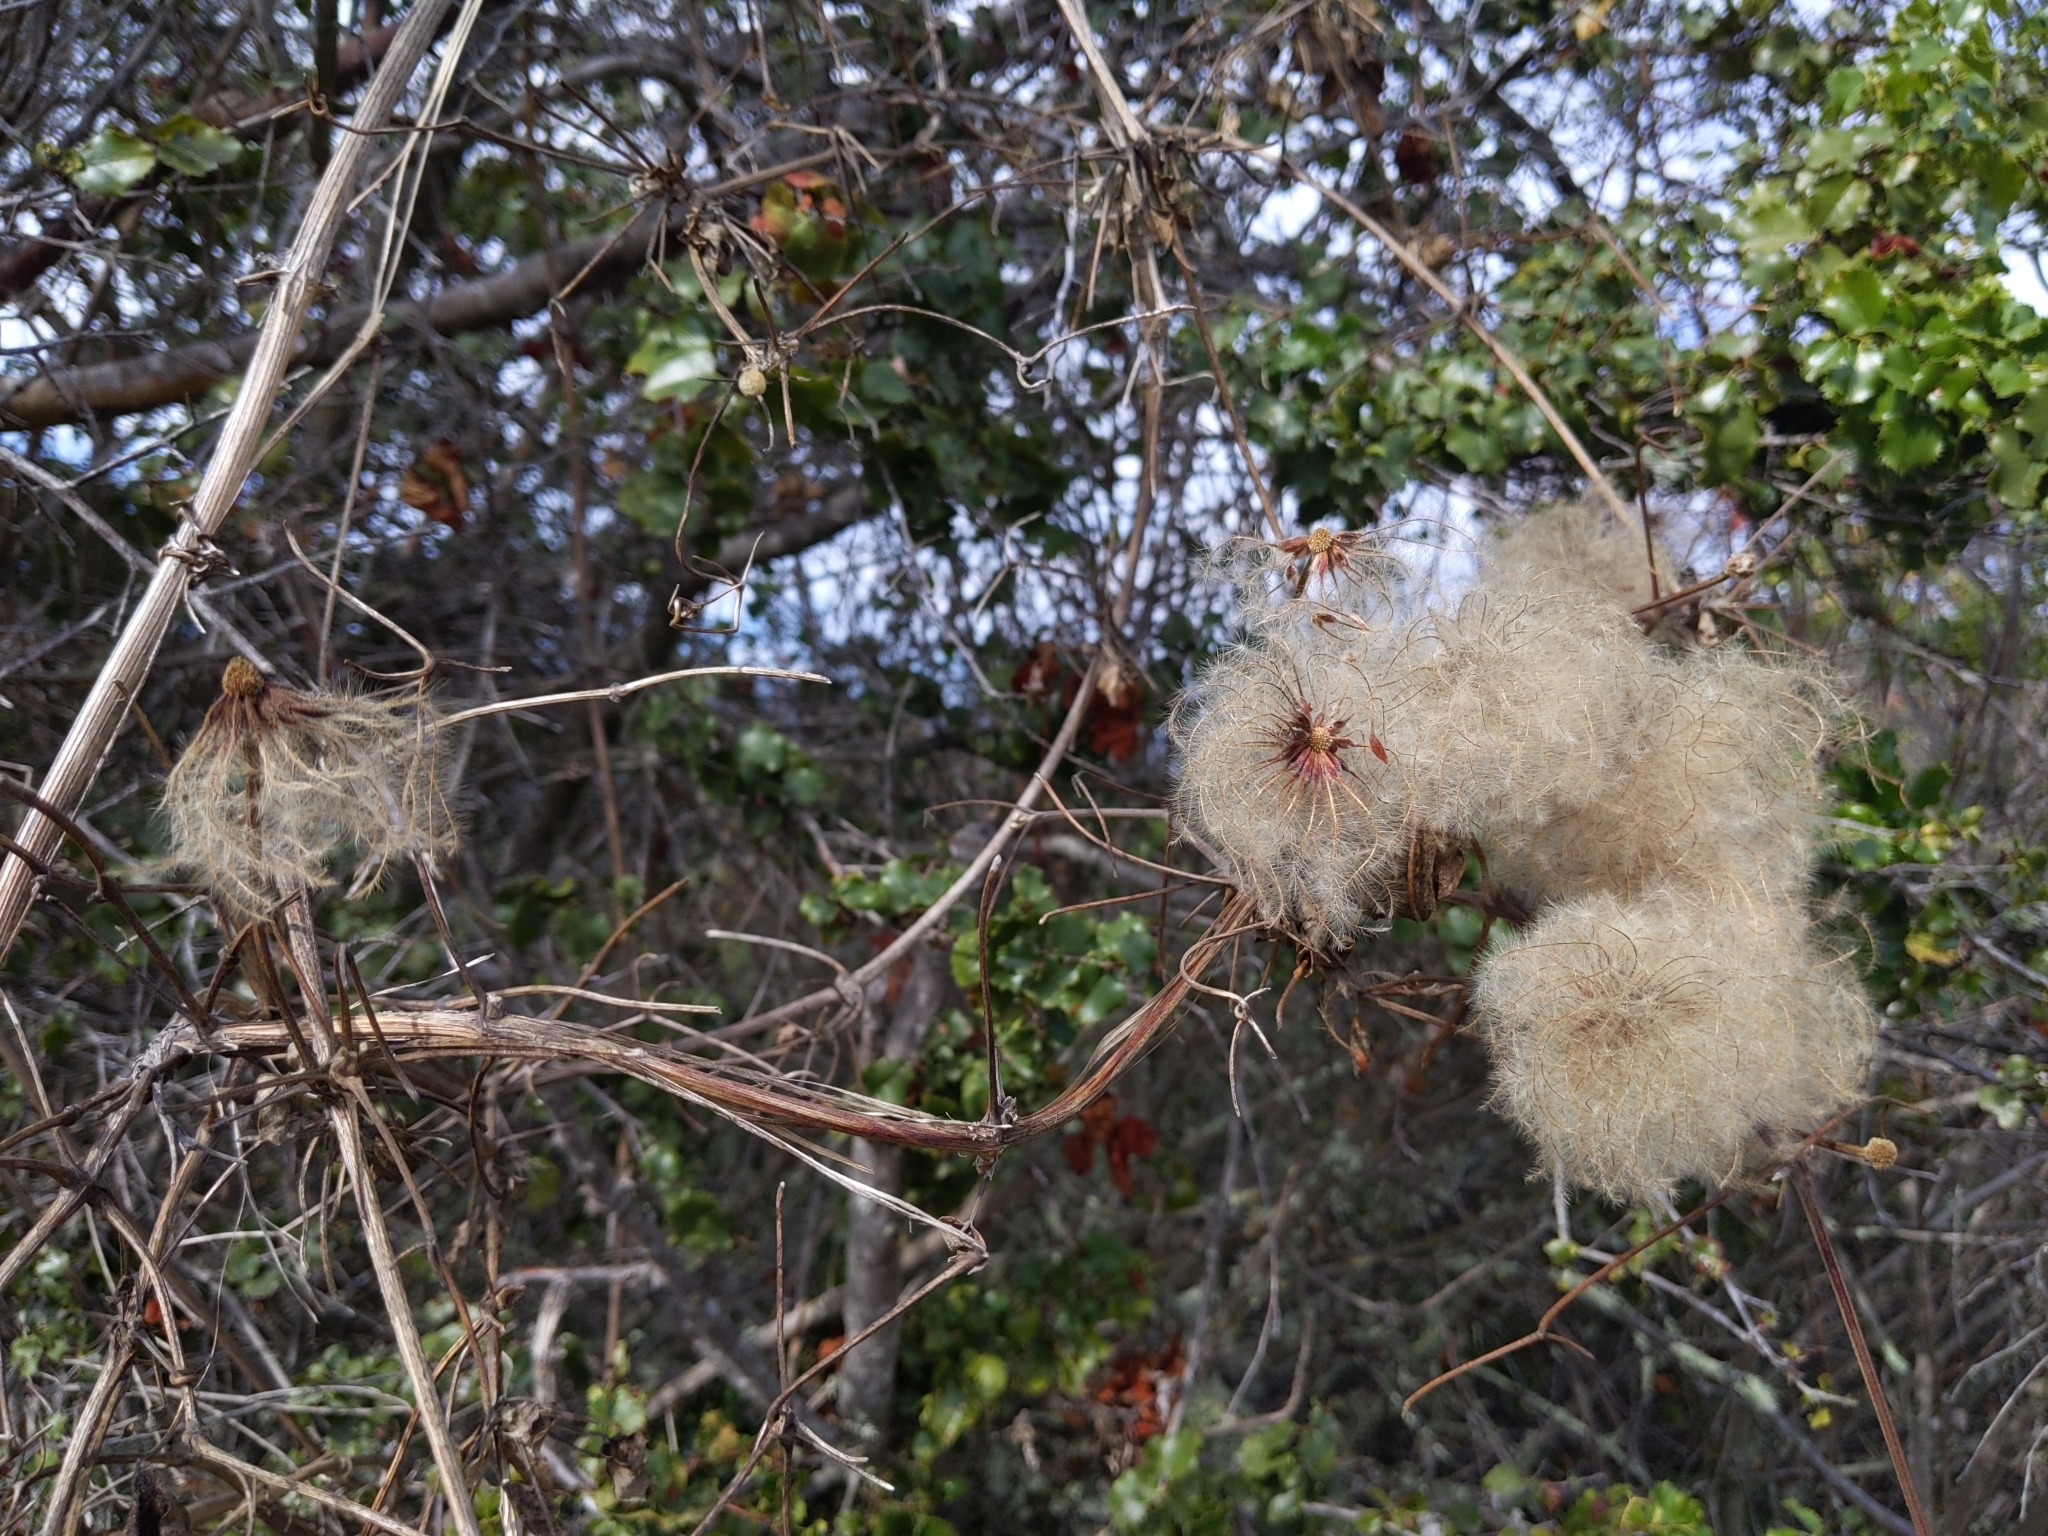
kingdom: Plantae
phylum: Tracheophyta
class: Magnoliopsida
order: Ranunculales
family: Ranunculaceae
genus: Clematis
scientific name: Clematis lasiantha
